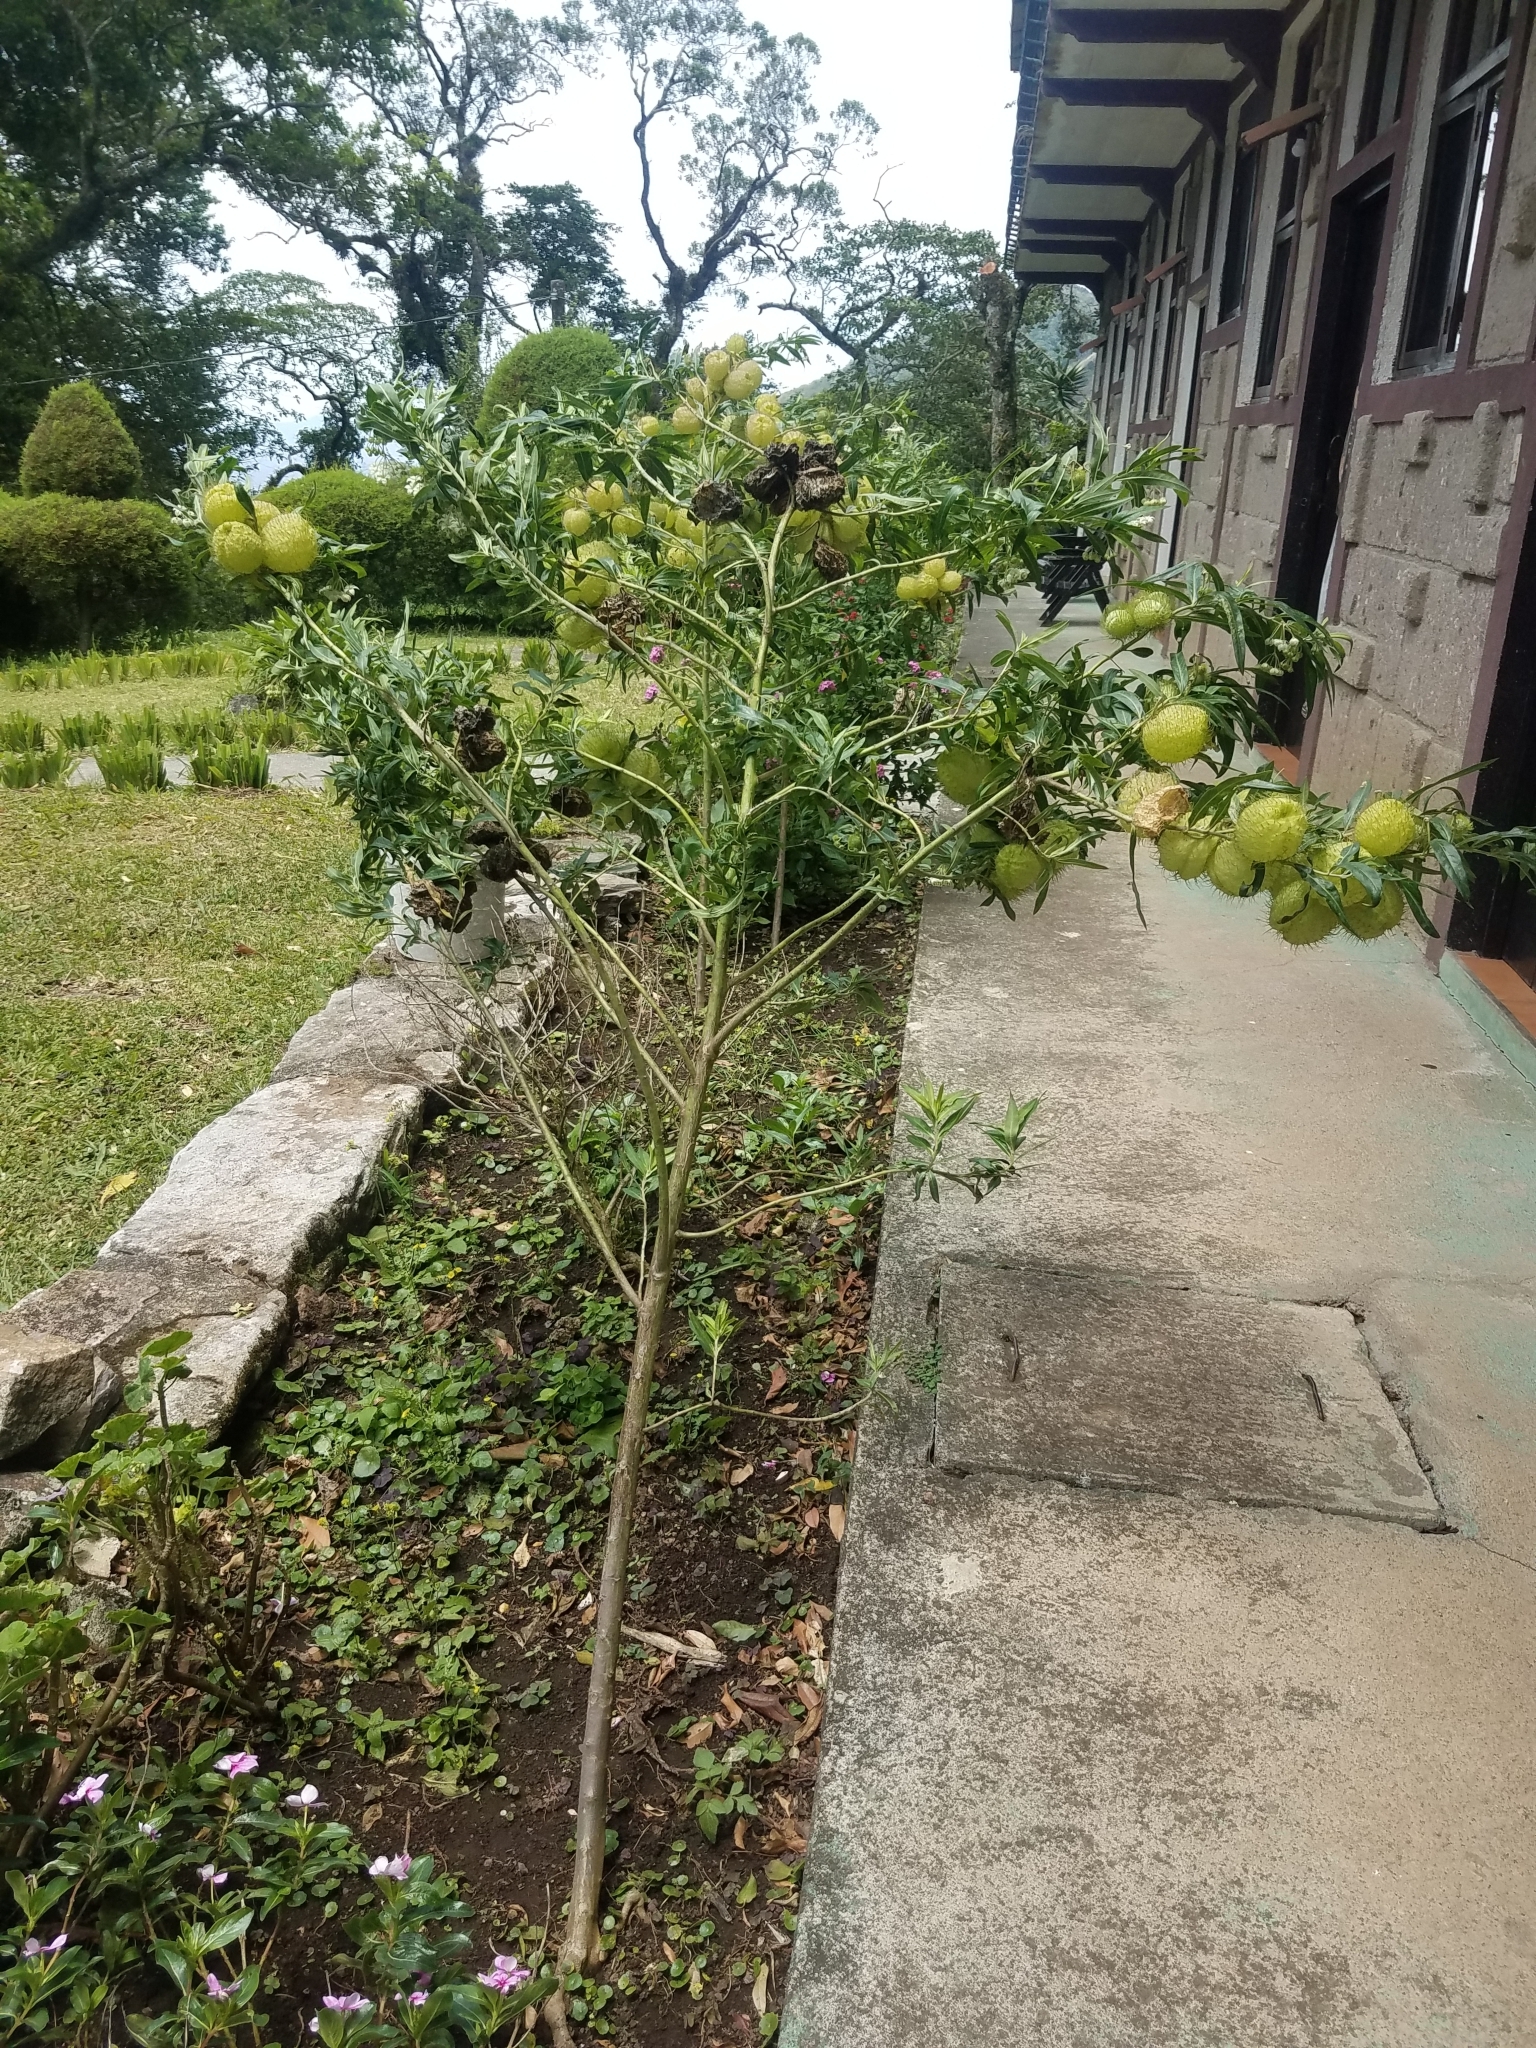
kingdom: Plantae
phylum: Tracheophyta
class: Magnoliopsida
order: Gentianales
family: Apocynaceae
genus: Gomphocarpus
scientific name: Gomphocarpus physocarpus
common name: Balloon cotton bush
